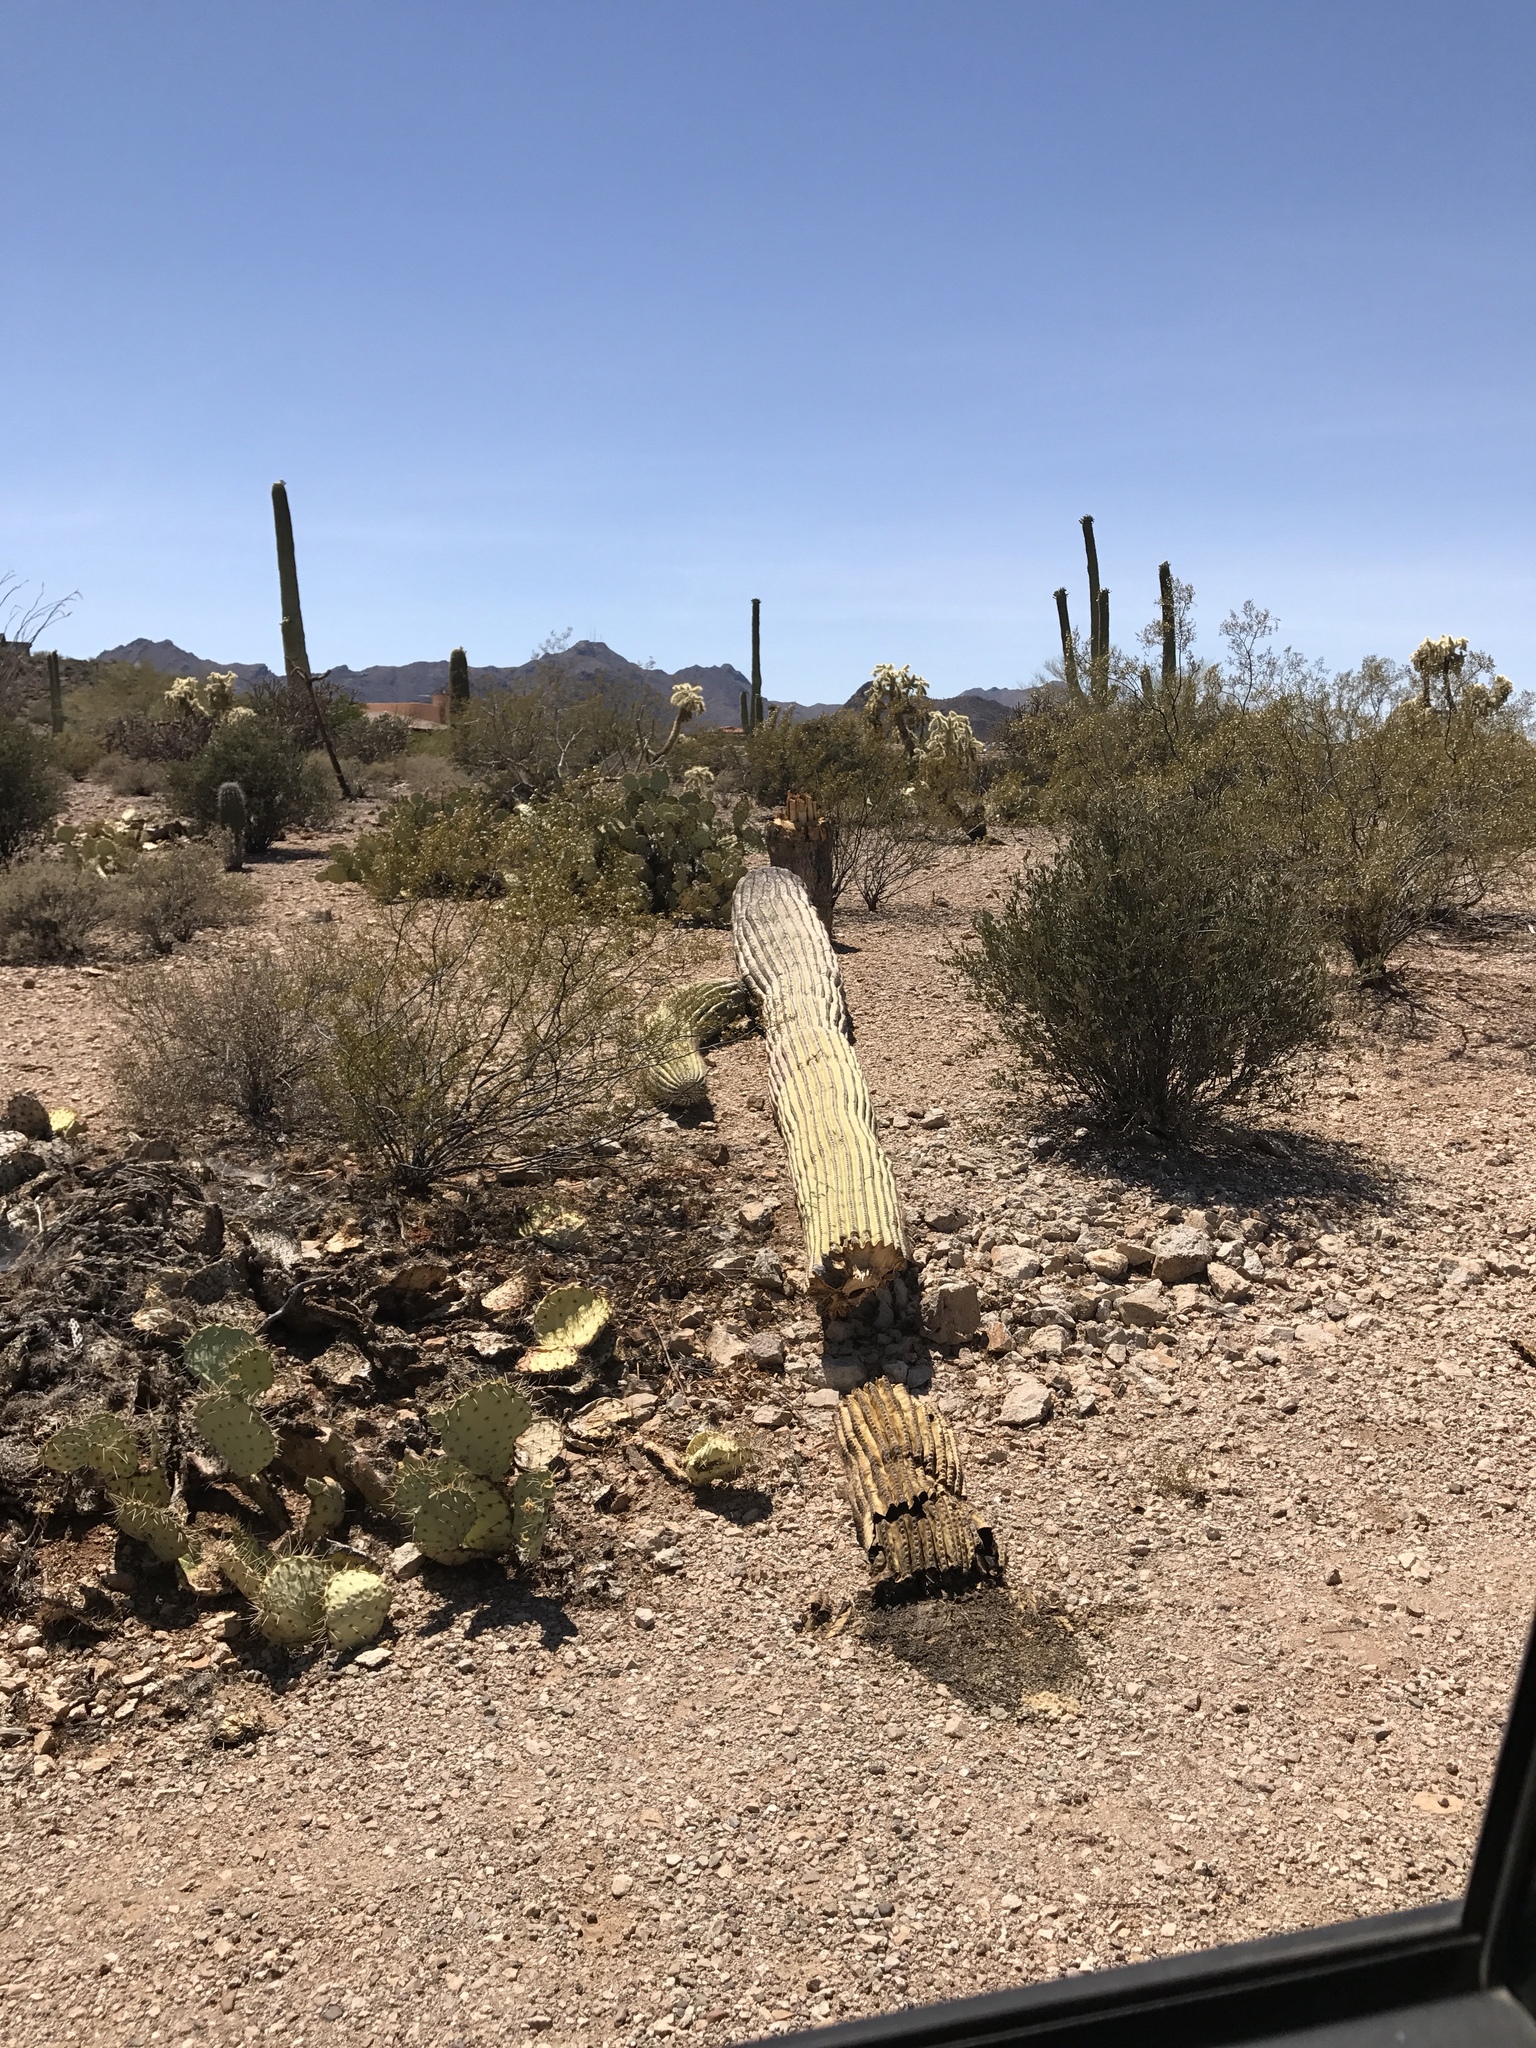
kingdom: Plantae
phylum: Tracheophyta
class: Magnoliopsida
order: Caryophyllales
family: Cactaceae
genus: Carnegiea
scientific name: Carnegiea gigantea
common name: Saguaro
